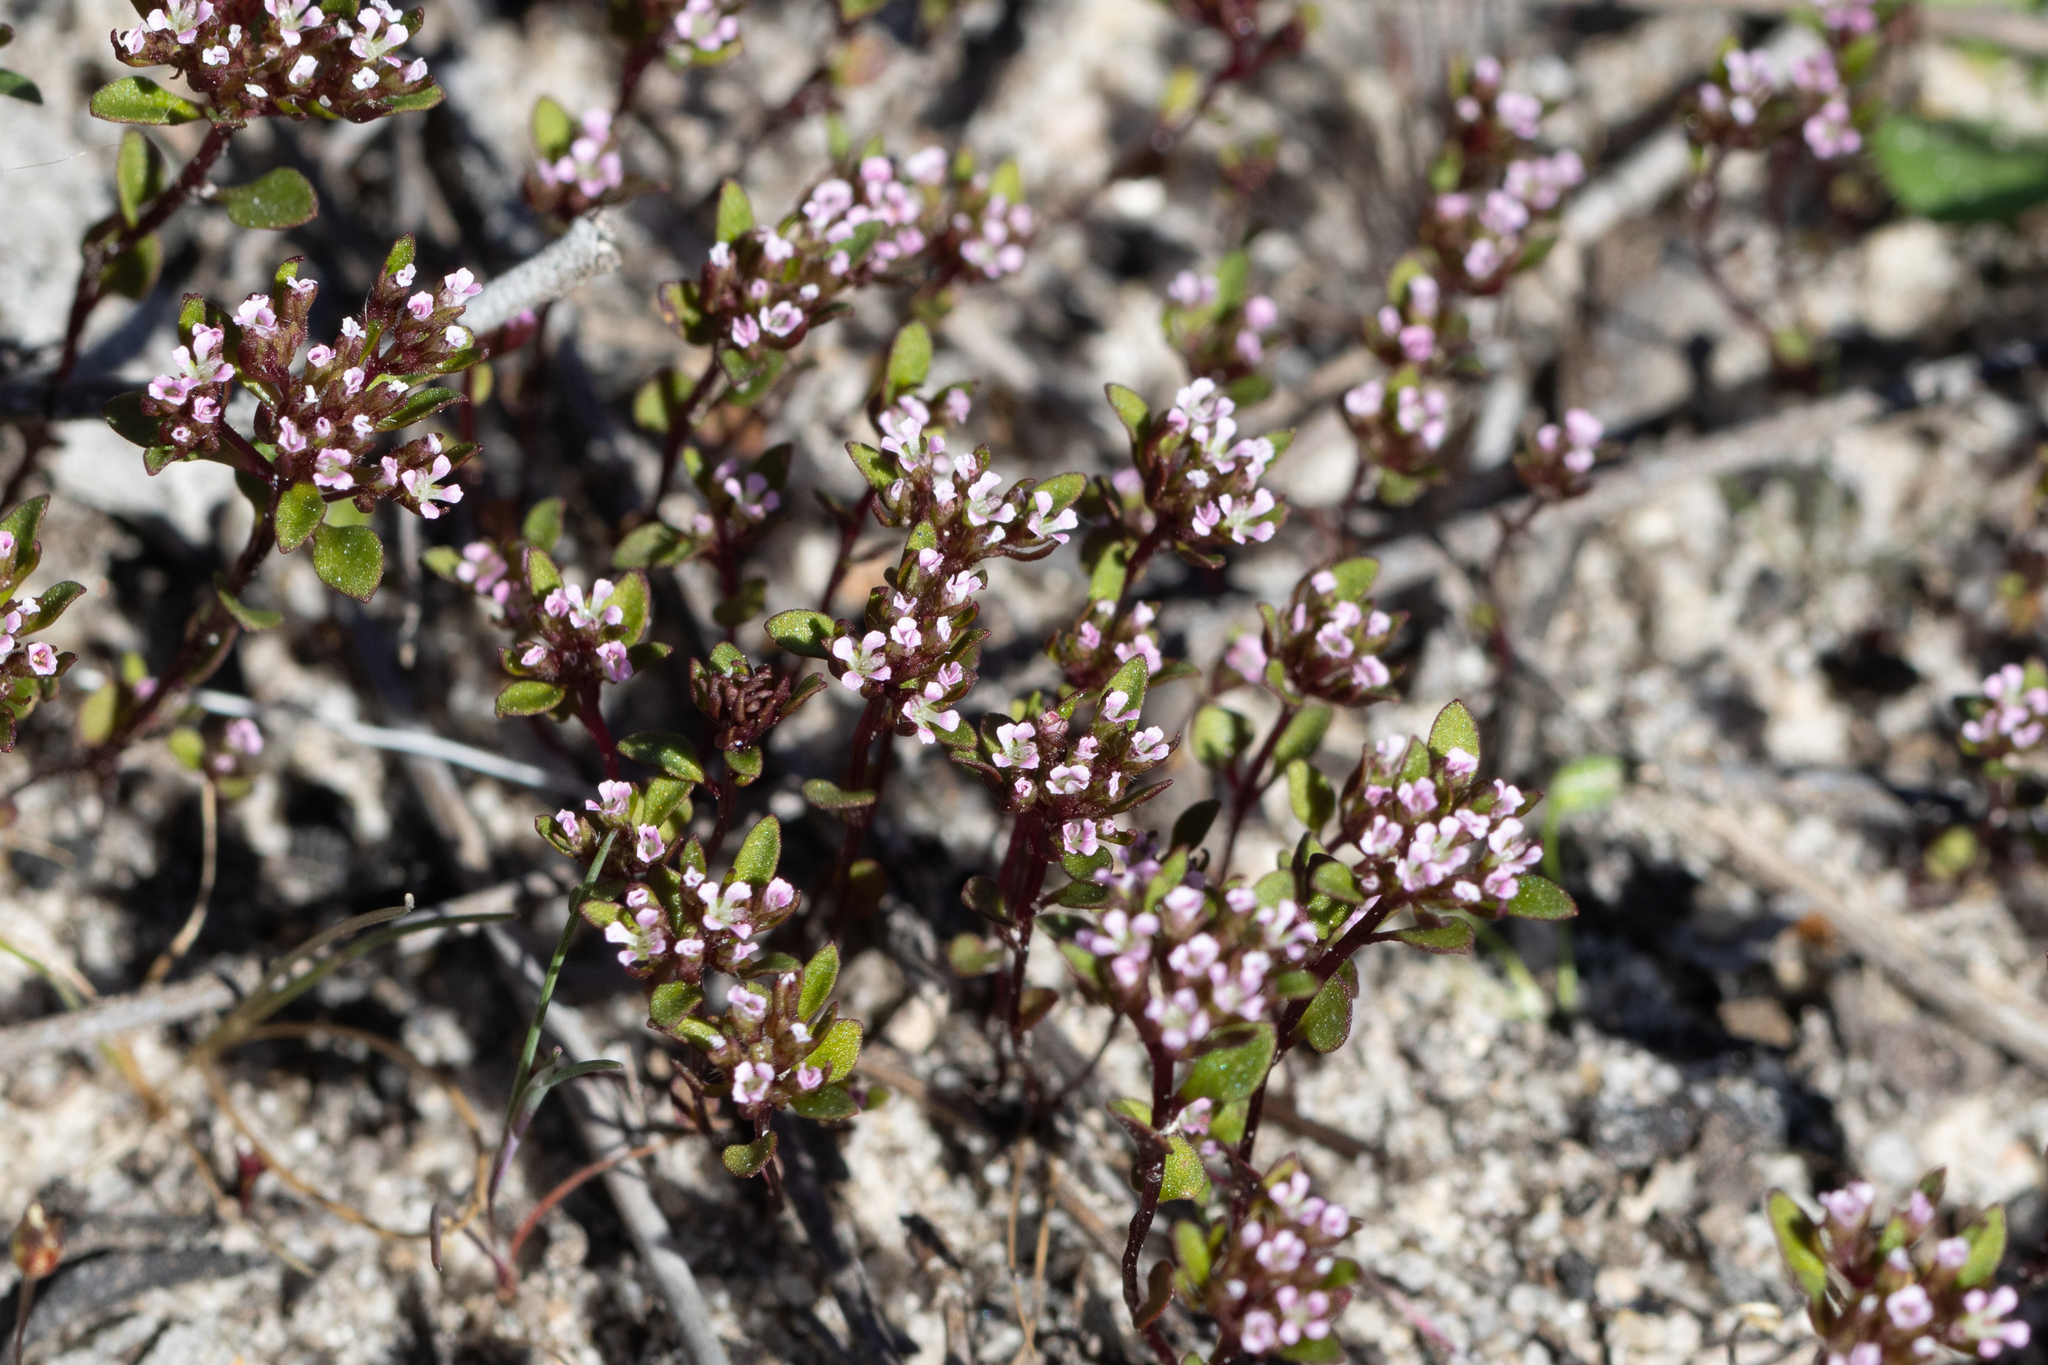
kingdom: Plantae
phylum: Tracheophyta
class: Magnoliopsida
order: Asterales
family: Stylidiaceae
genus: Levenhookia
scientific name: Levenhookia pusilla
